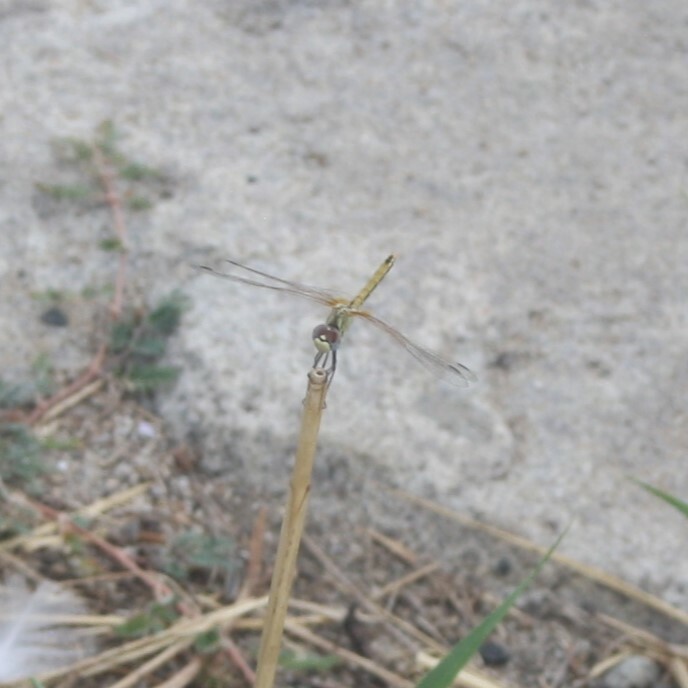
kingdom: Animalia
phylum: Arthropoda
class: Insecta
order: Odonata
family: Libellulidae
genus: Sympetrum
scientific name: Sympetrum fonscolombii
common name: Red-veined darter
